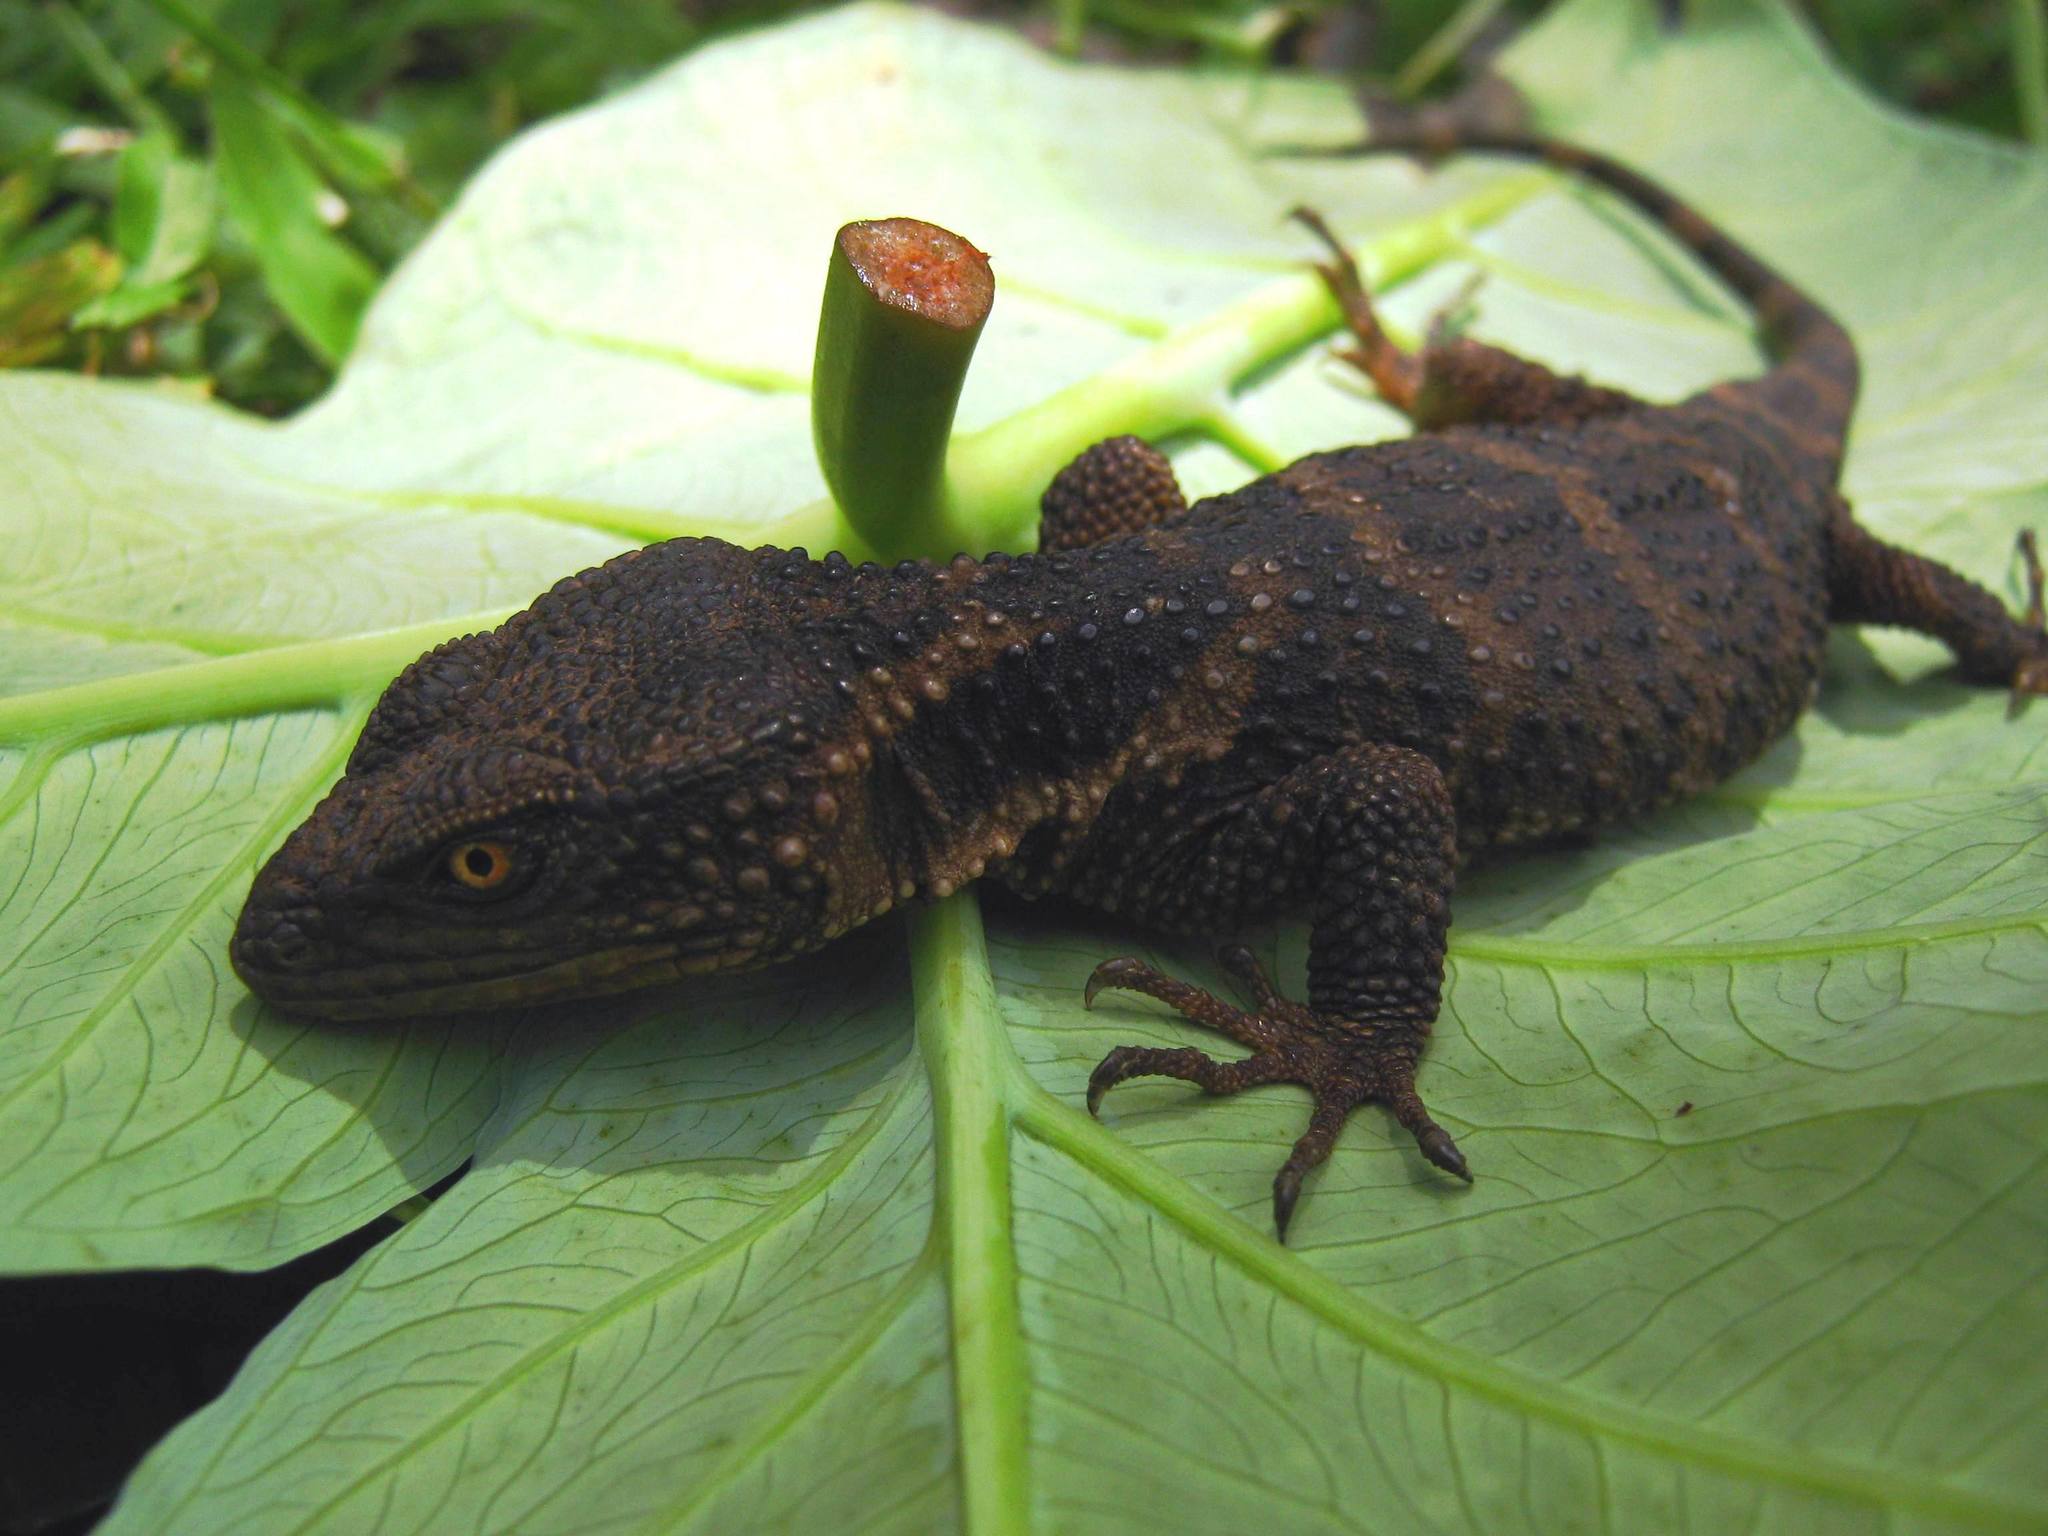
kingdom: Animalia
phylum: Chordata
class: Squamata
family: Xenosauridae
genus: Xenosaurus
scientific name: Xenosaurus
